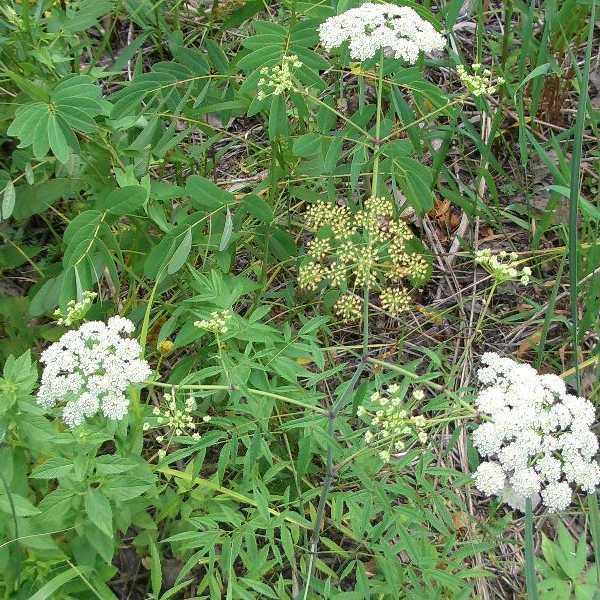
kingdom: Plantae
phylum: Tracheophyta
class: Magnoliopsida
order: Apiales
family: Apiaceae
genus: Cicuta
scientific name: Cicuta maculata
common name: Spotted cowbane
